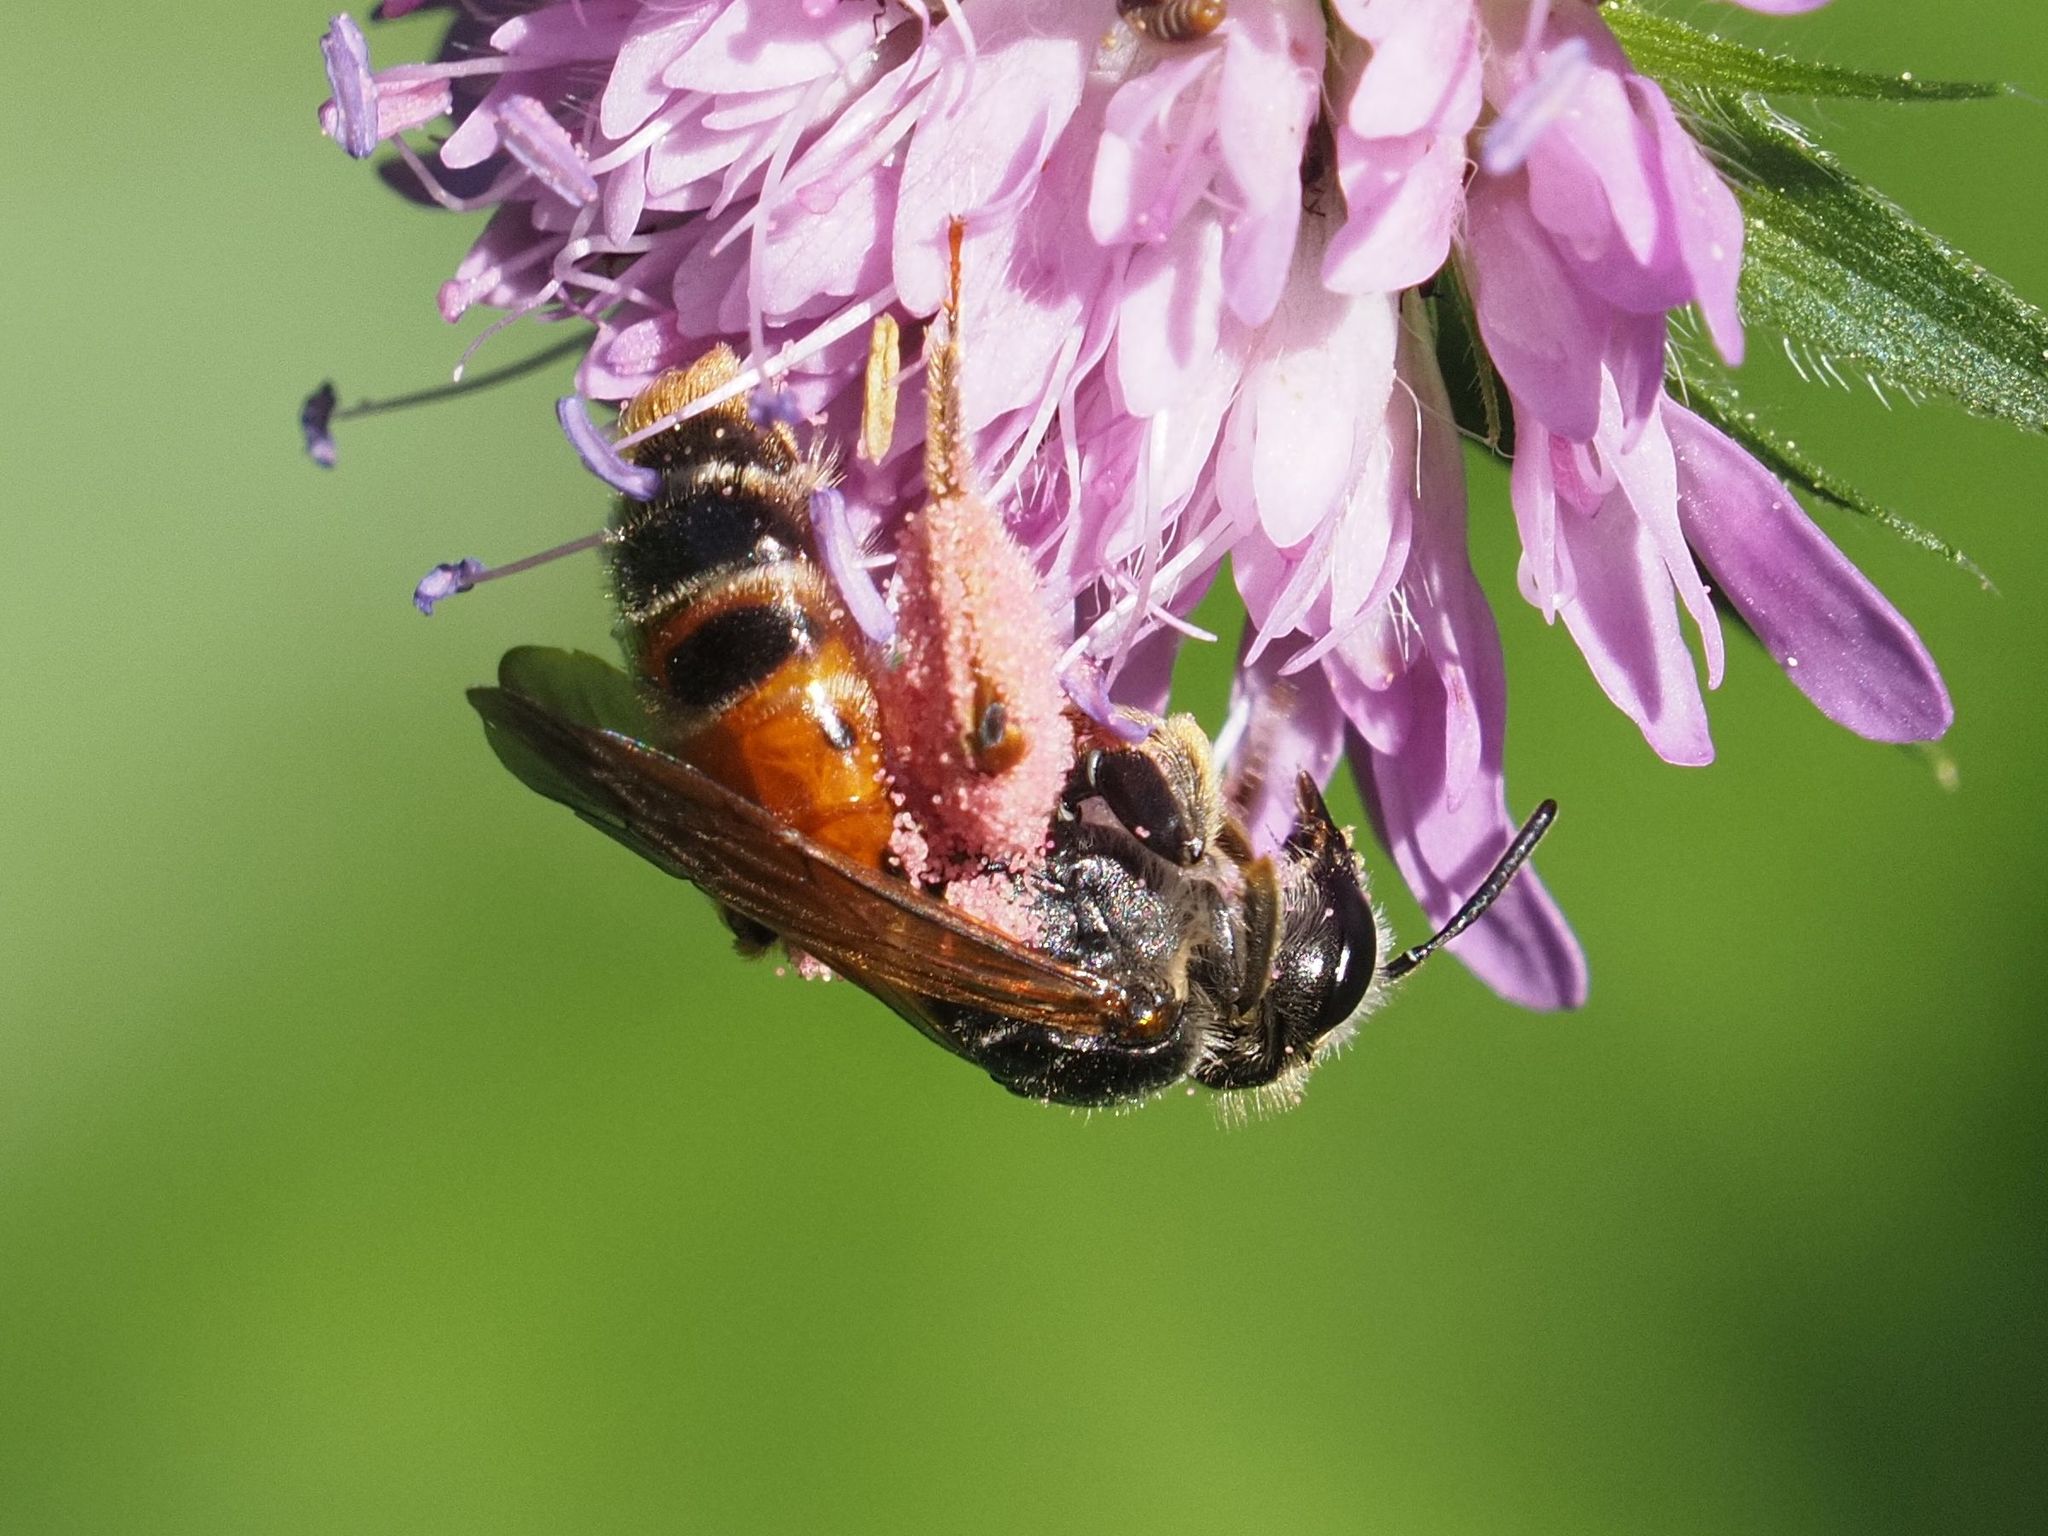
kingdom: Animalia
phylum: Arthropoda
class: Insecta
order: Hymenoptera
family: Andrenidae
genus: Andrena
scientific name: Andrena hattorfiana
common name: Large scabious mining bee
